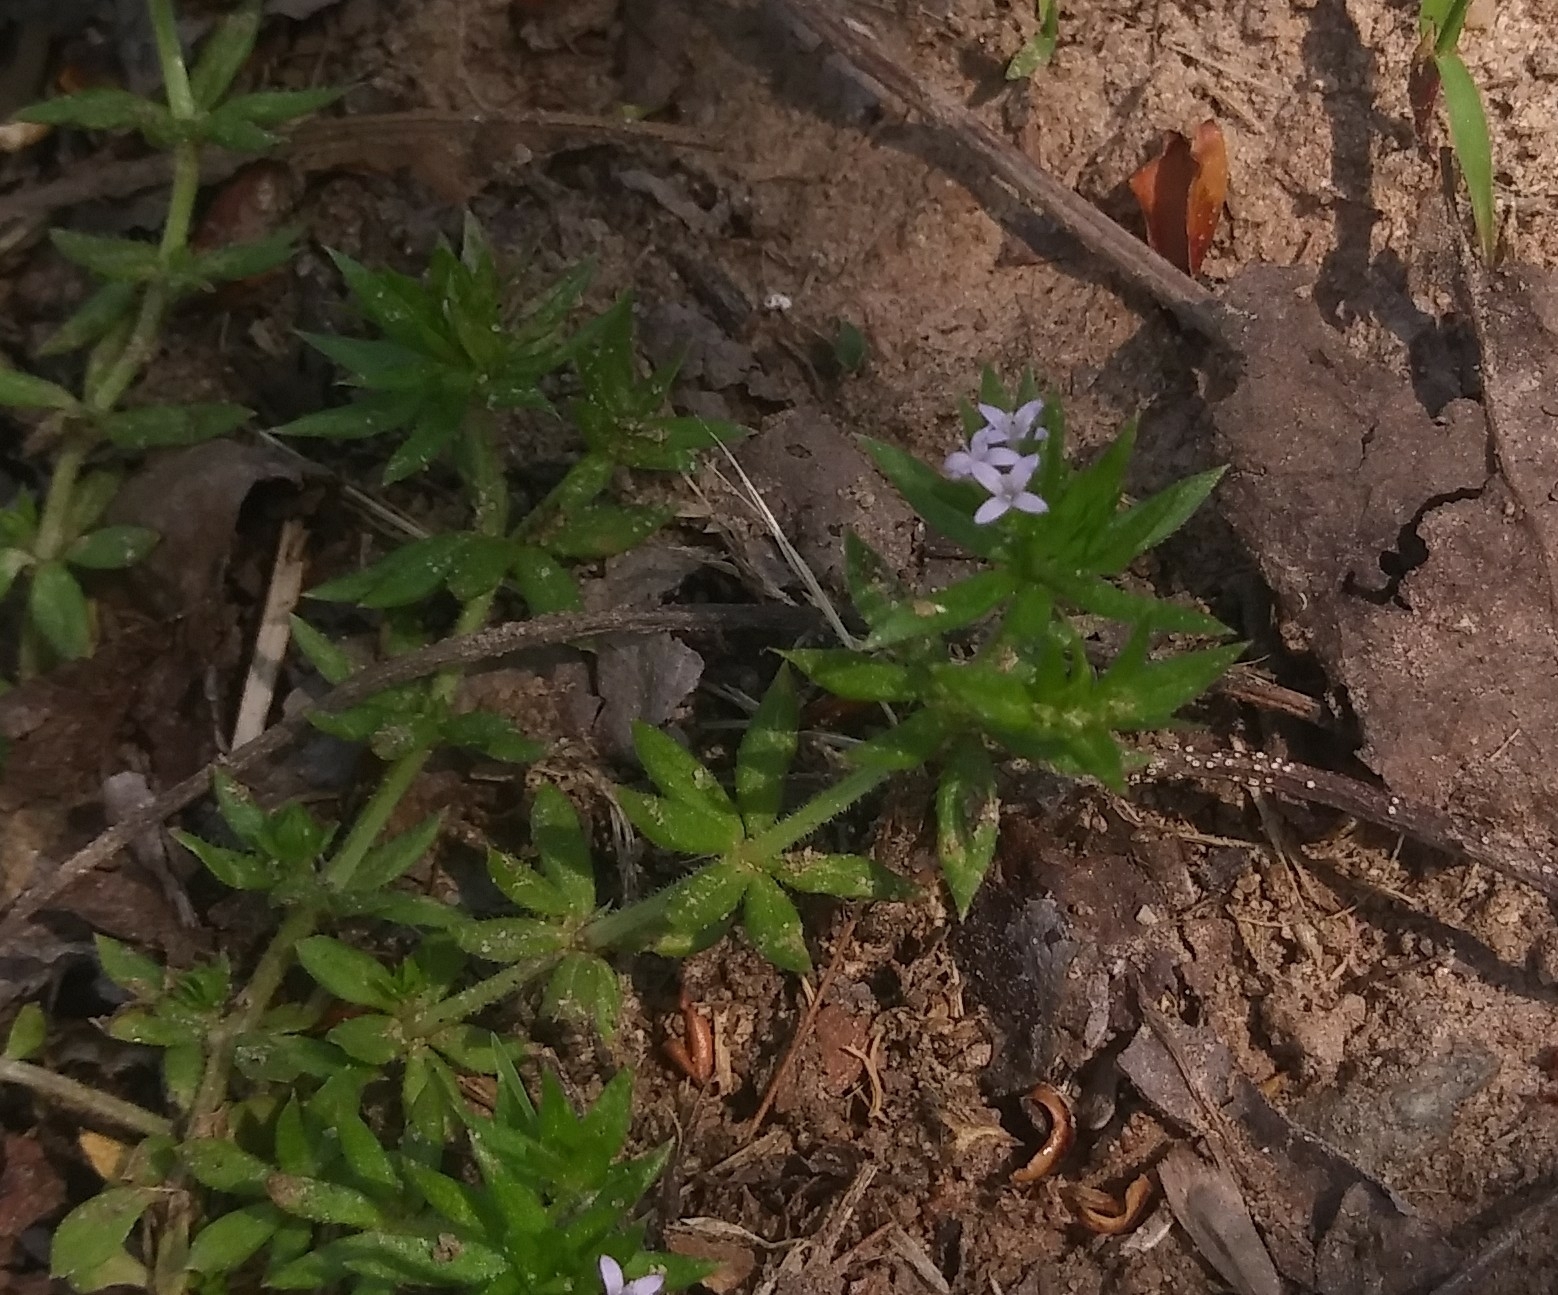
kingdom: Plantae
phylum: Tracheophyta
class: Magnoliopsida
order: Gentianales
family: Rubiaceae
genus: Sherardia
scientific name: Sherardia arvensis
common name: Field madder
